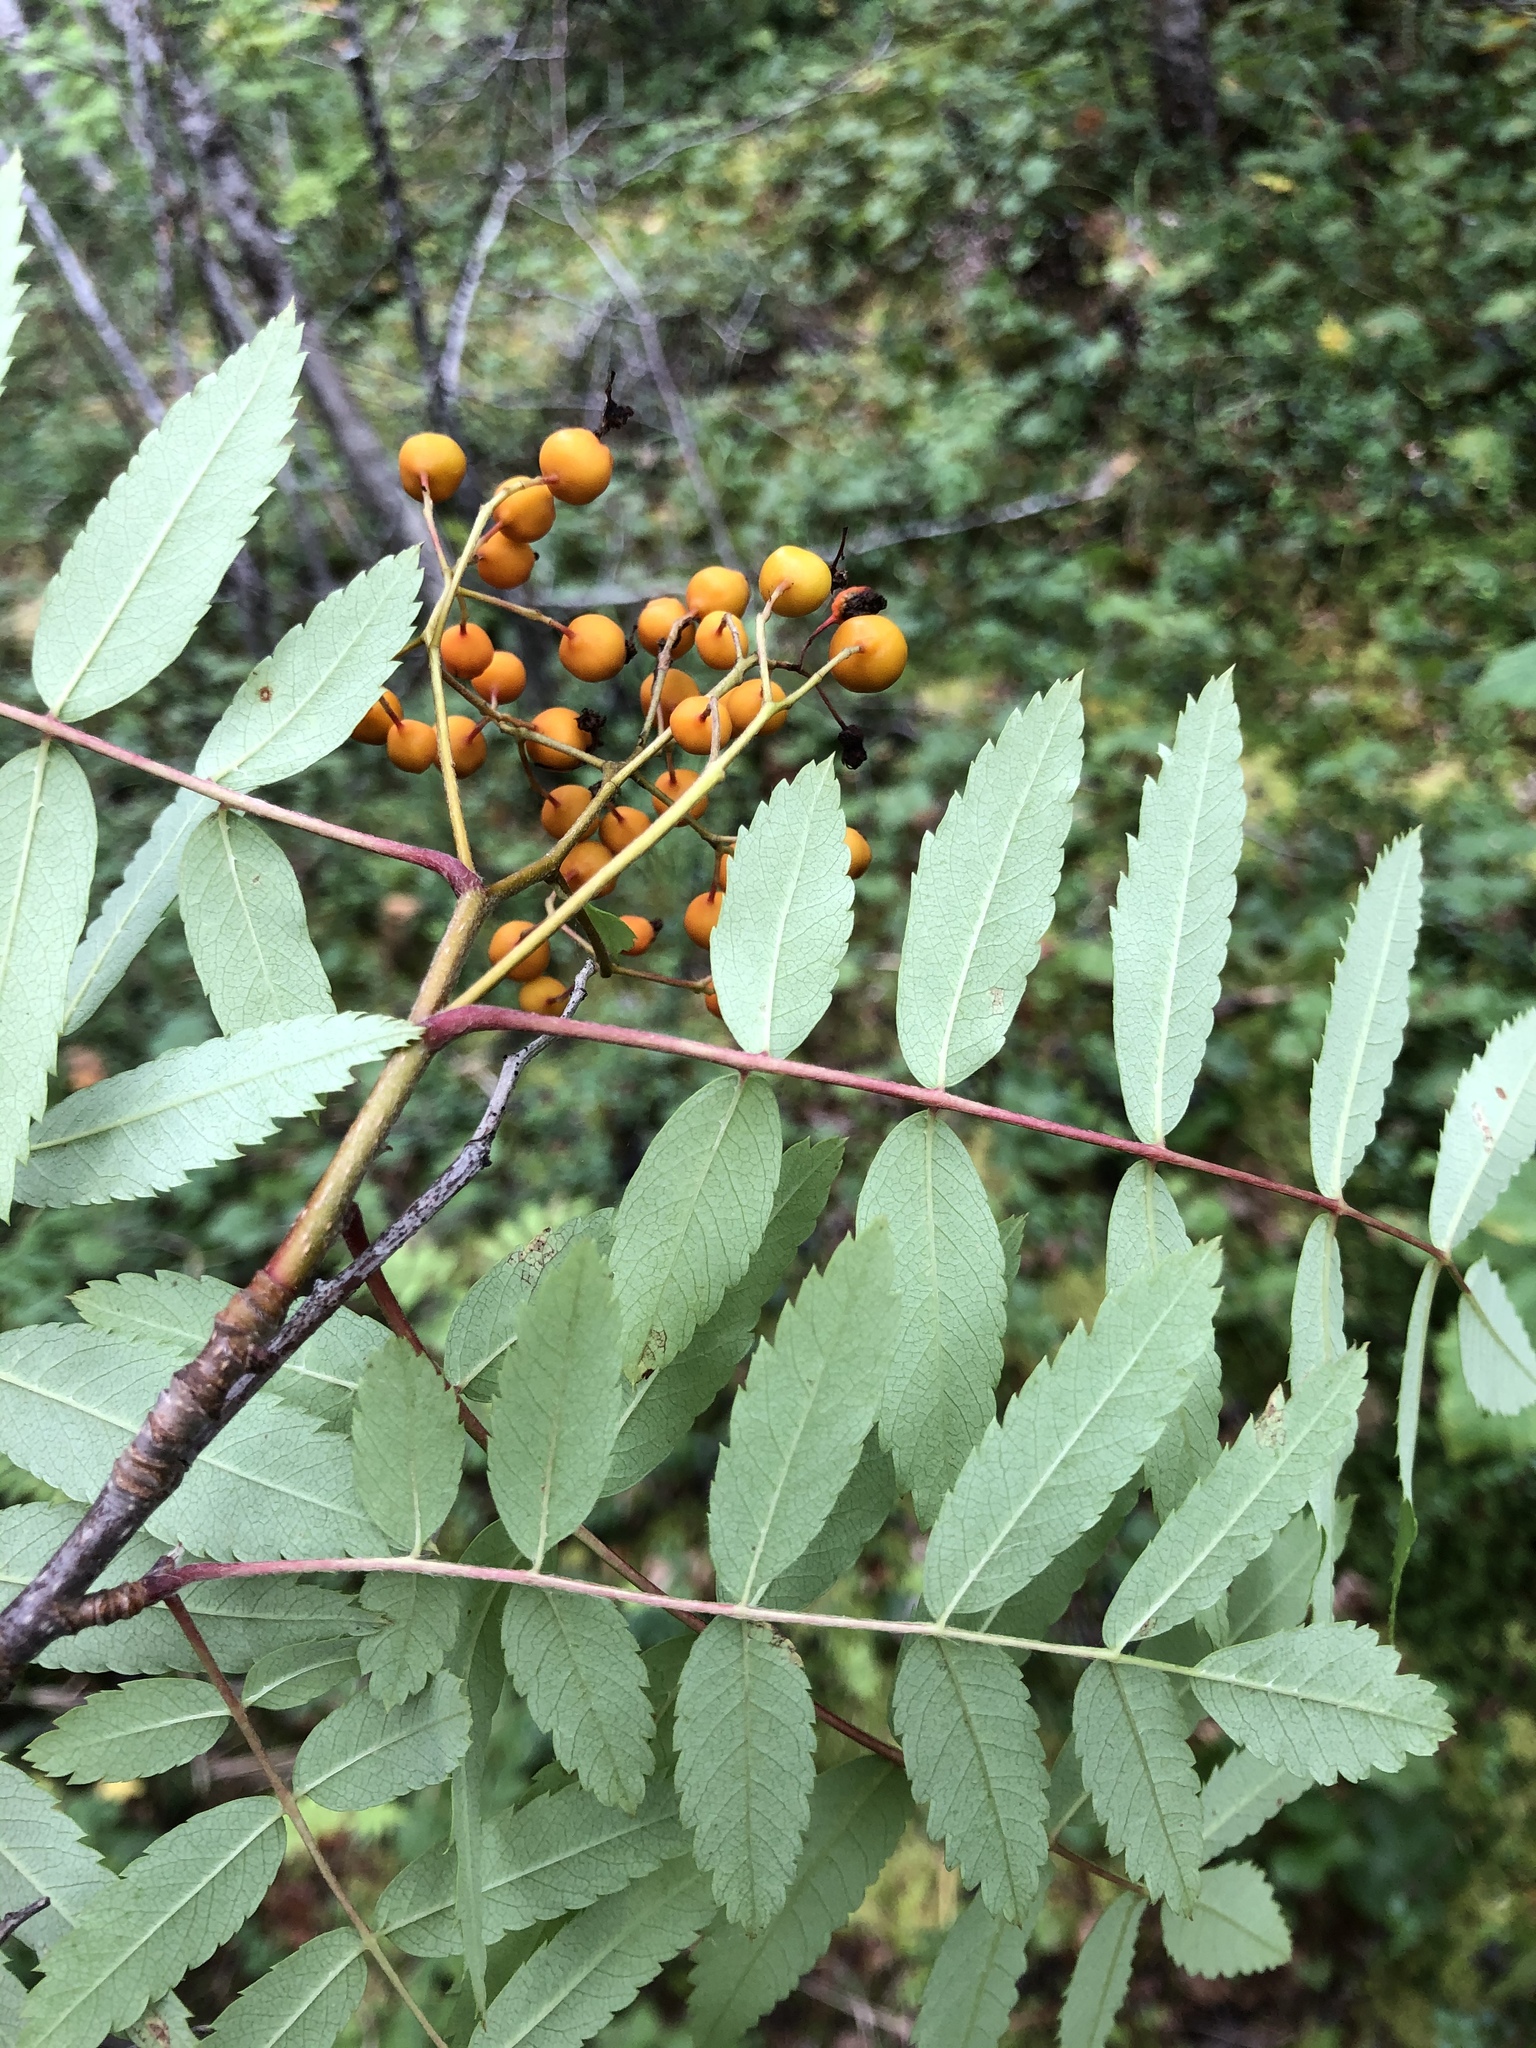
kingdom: Plantae
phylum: Tracheophyta
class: Magnoliopsida
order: Rosales
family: Rosaceae
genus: Sorbus
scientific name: Sorbus aucuparia
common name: Rowan
